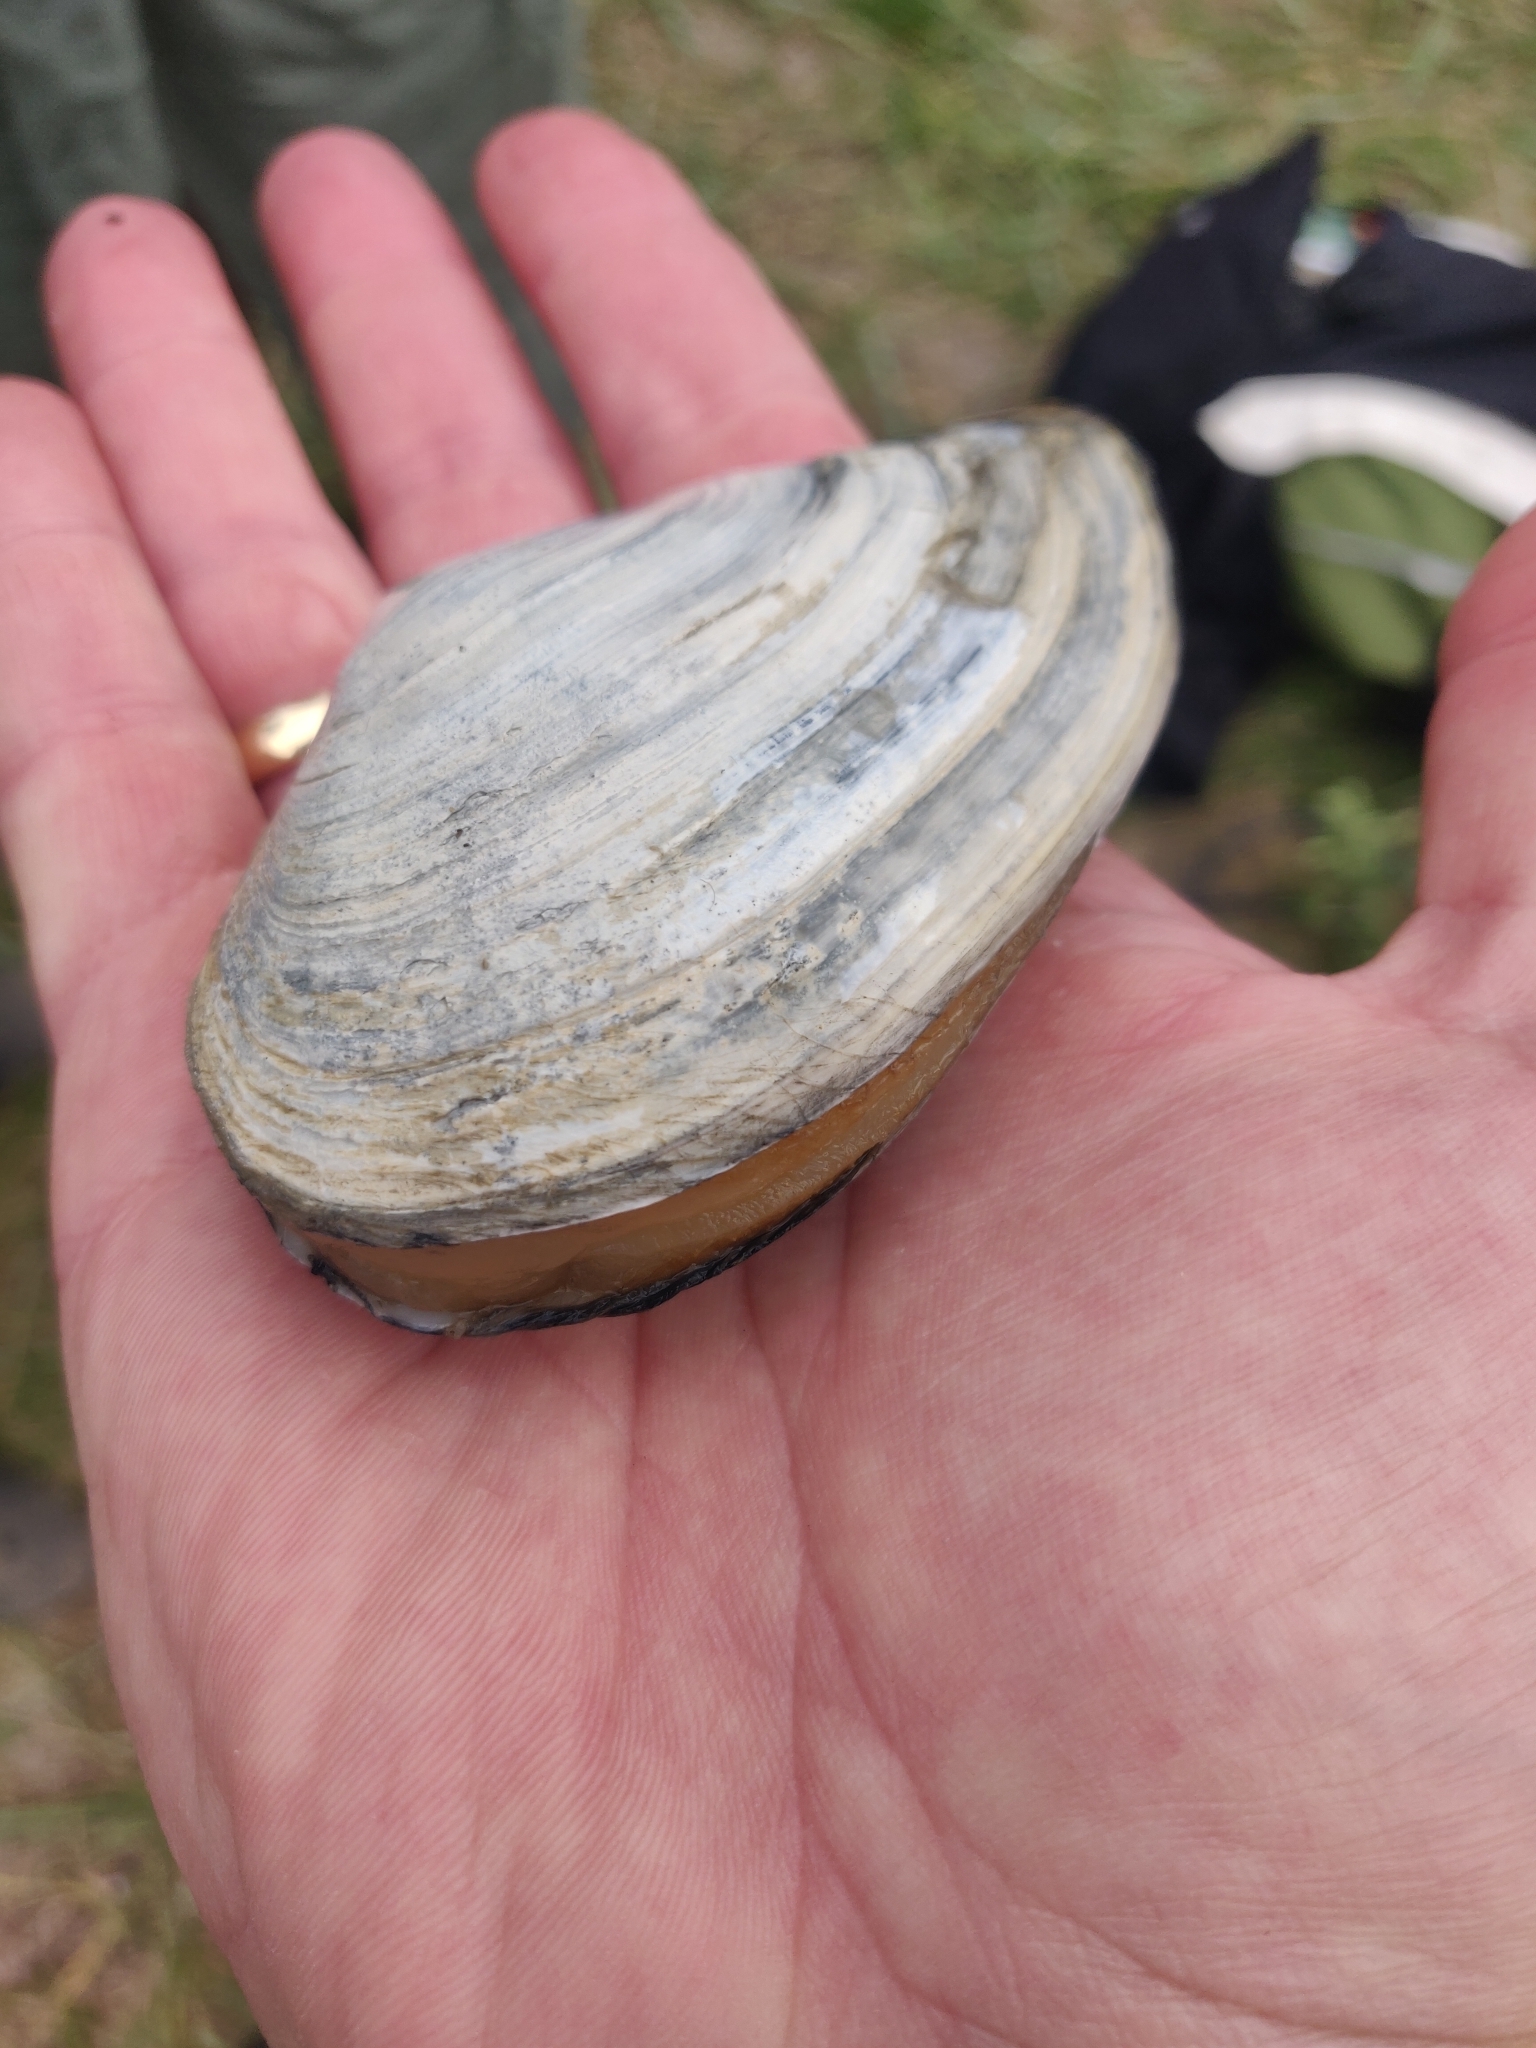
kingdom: Animalia
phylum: Mollusca
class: Bivalvia
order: Myida
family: Myidae
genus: Mya
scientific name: Mya arenaria
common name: Soft-shelled clam
